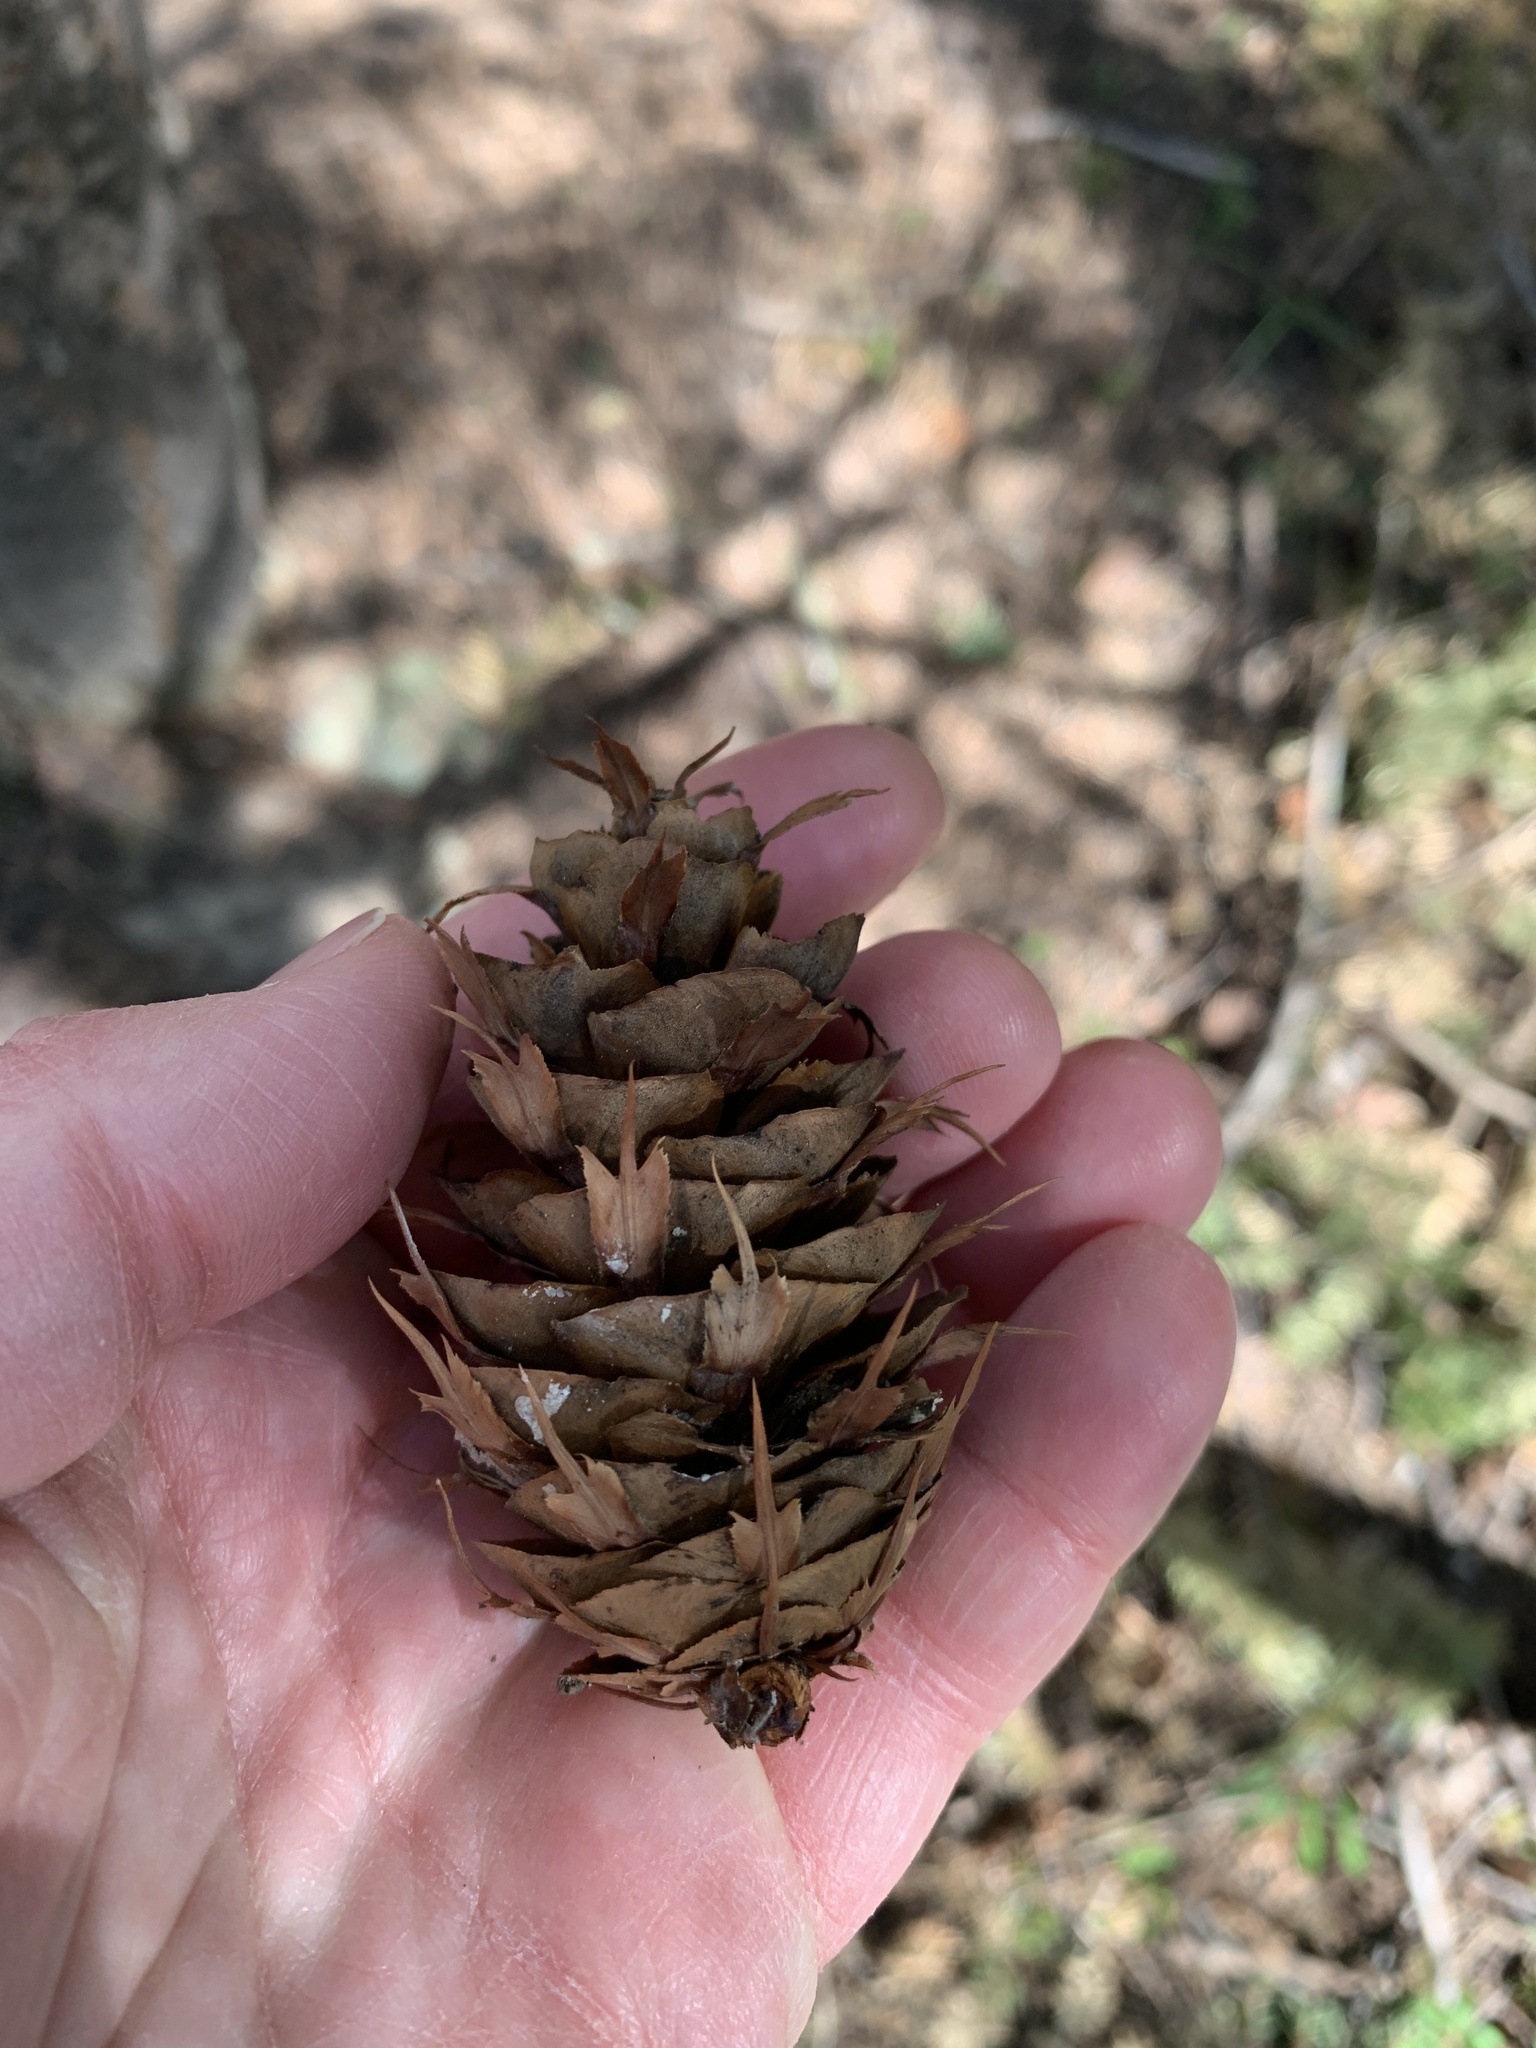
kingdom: Plantae
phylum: Tracheophyta
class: Pinopsida
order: Pinales
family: Pinaceae
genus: Pseudotsuga
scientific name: Pseudotsuga menziesii
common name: Douglas fir
